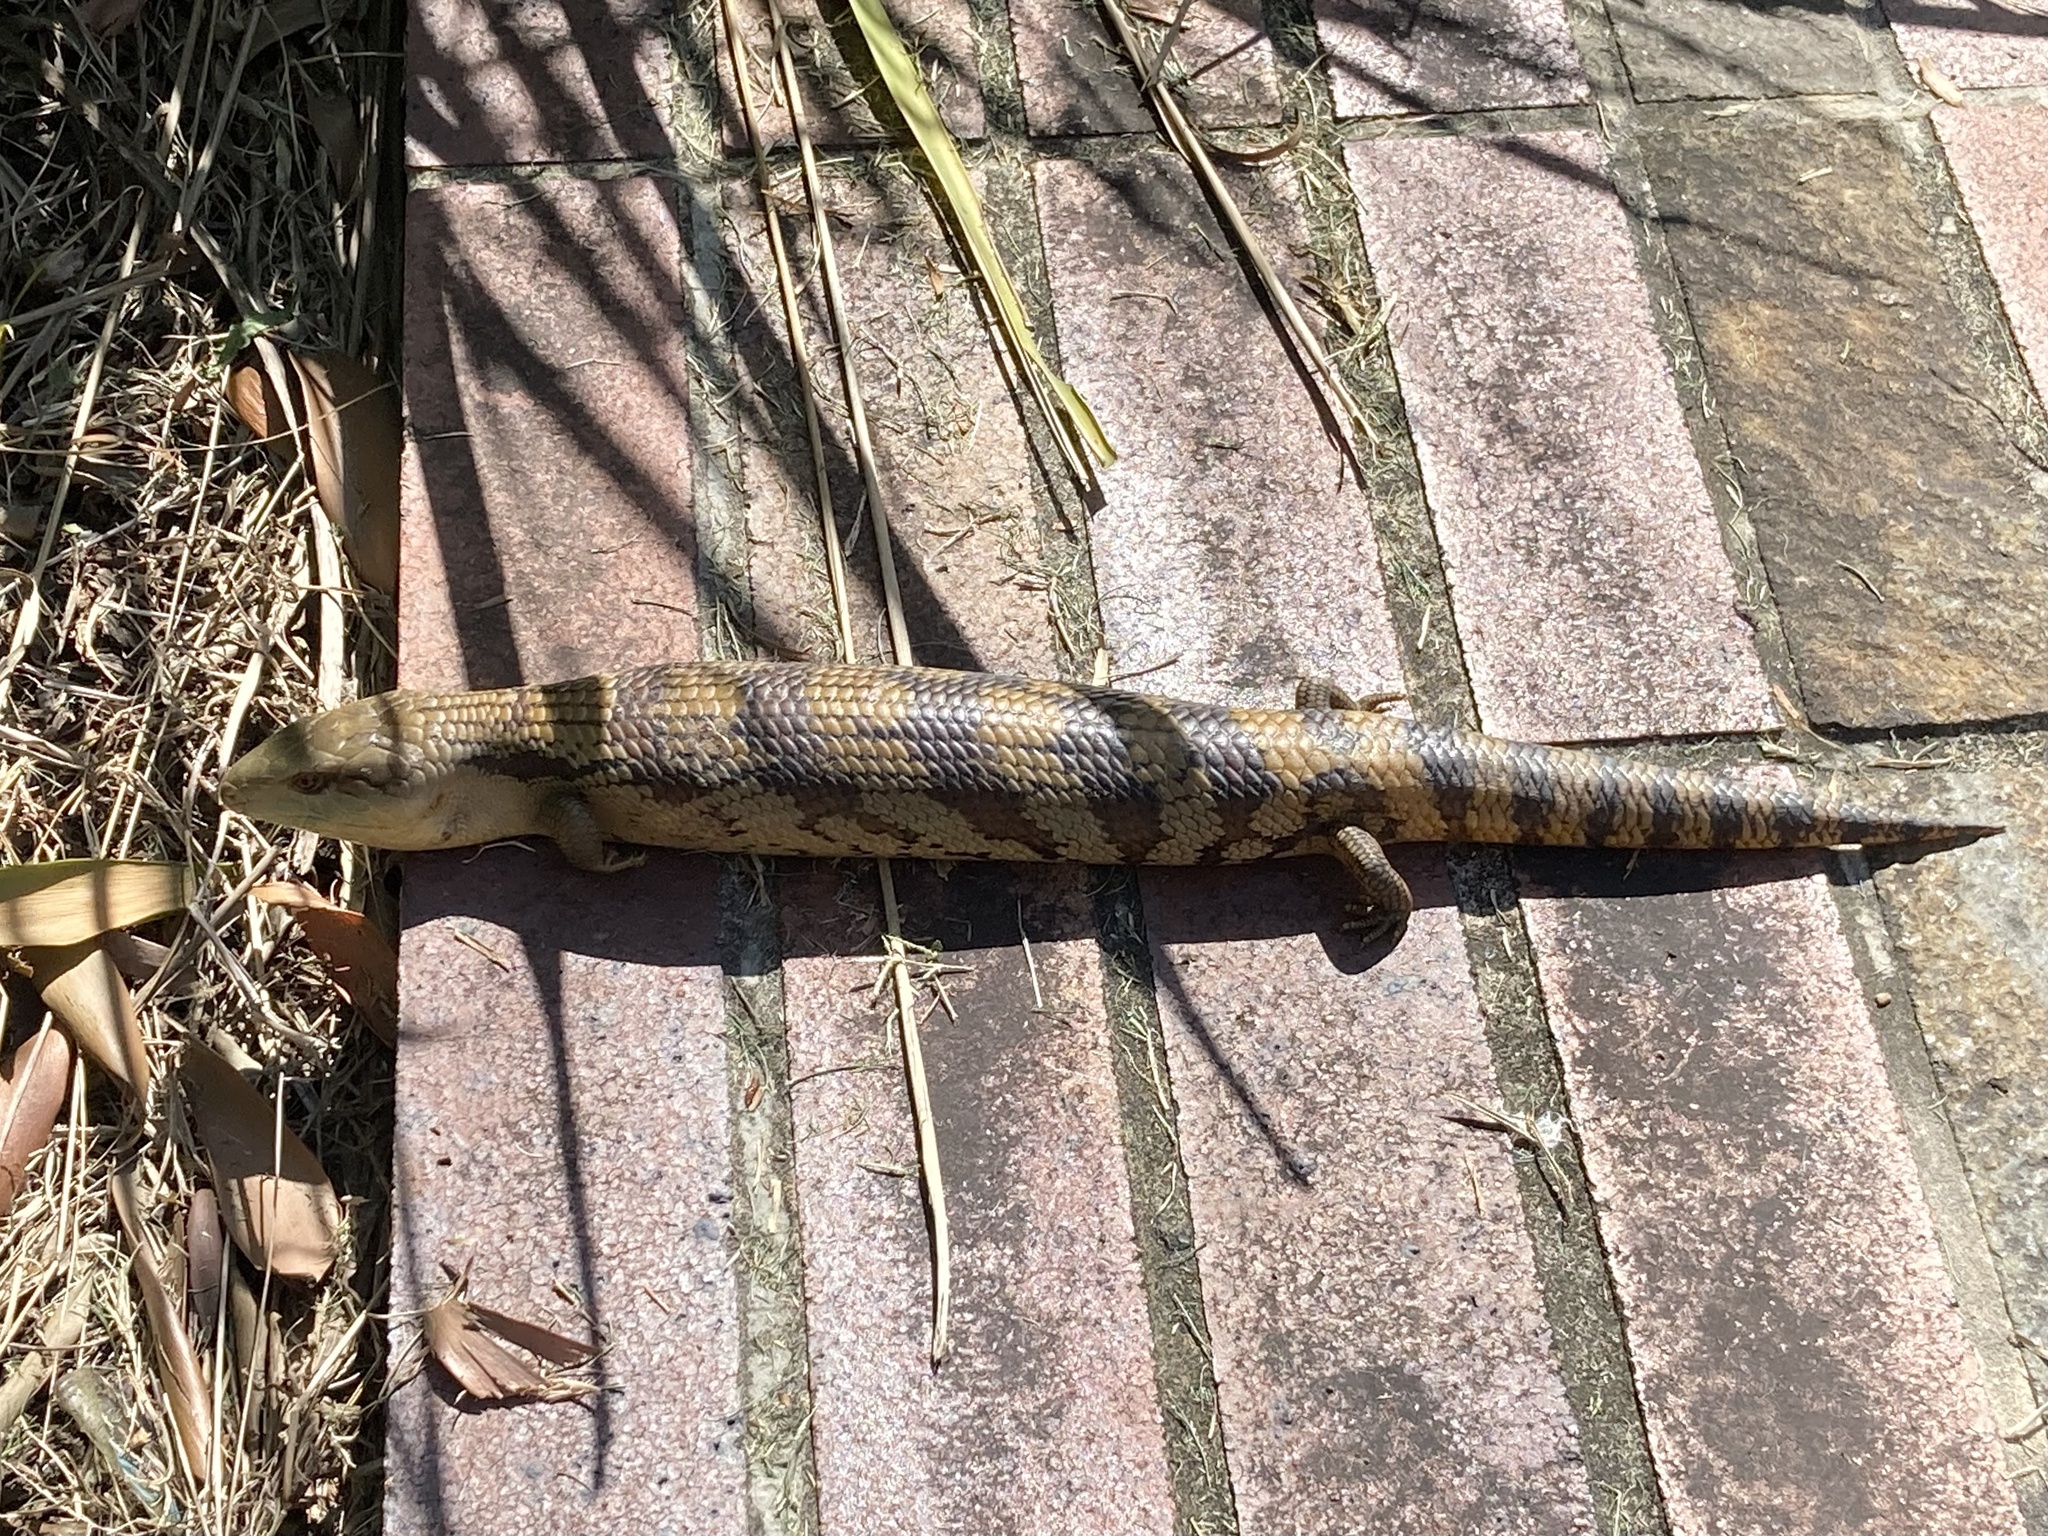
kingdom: Animalia
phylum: Chordata
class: Squamata
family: Scincidae
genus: Tiliqua
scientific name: Tiliqua scincoides
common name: Common bluetongue
